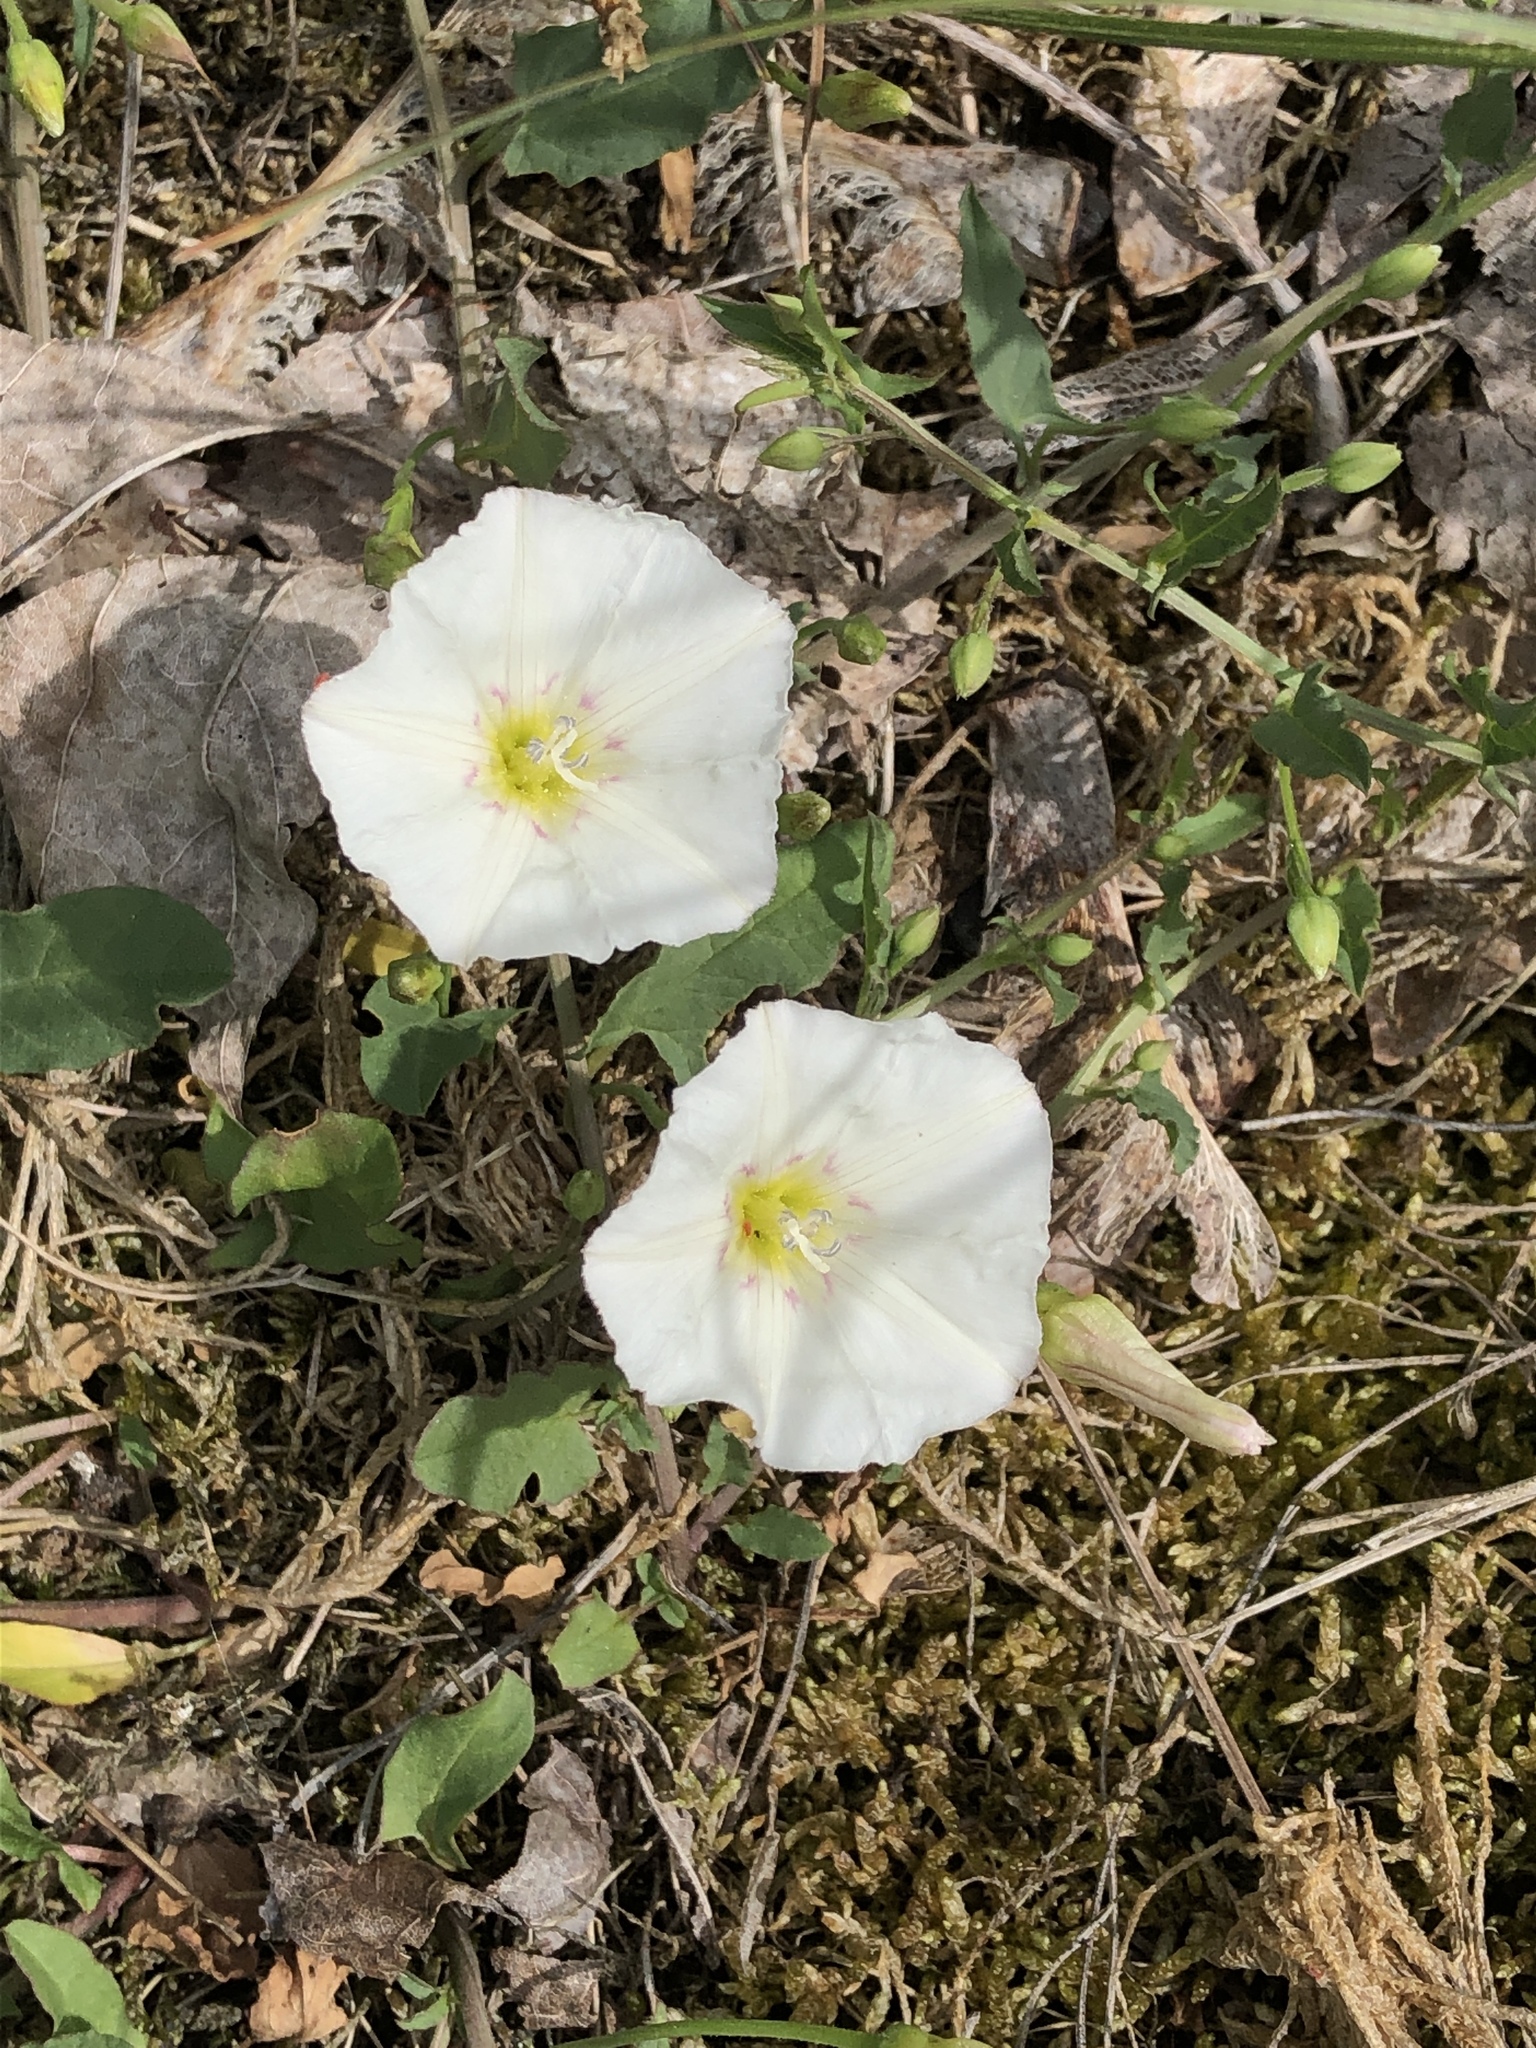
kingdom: Plantae
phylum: Tracheophyta
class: Magnoliopsida
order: Solanales
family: Convolvulaceae
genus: Convolvulus
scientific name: Convolvulus arvensis
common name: Field bindweed
